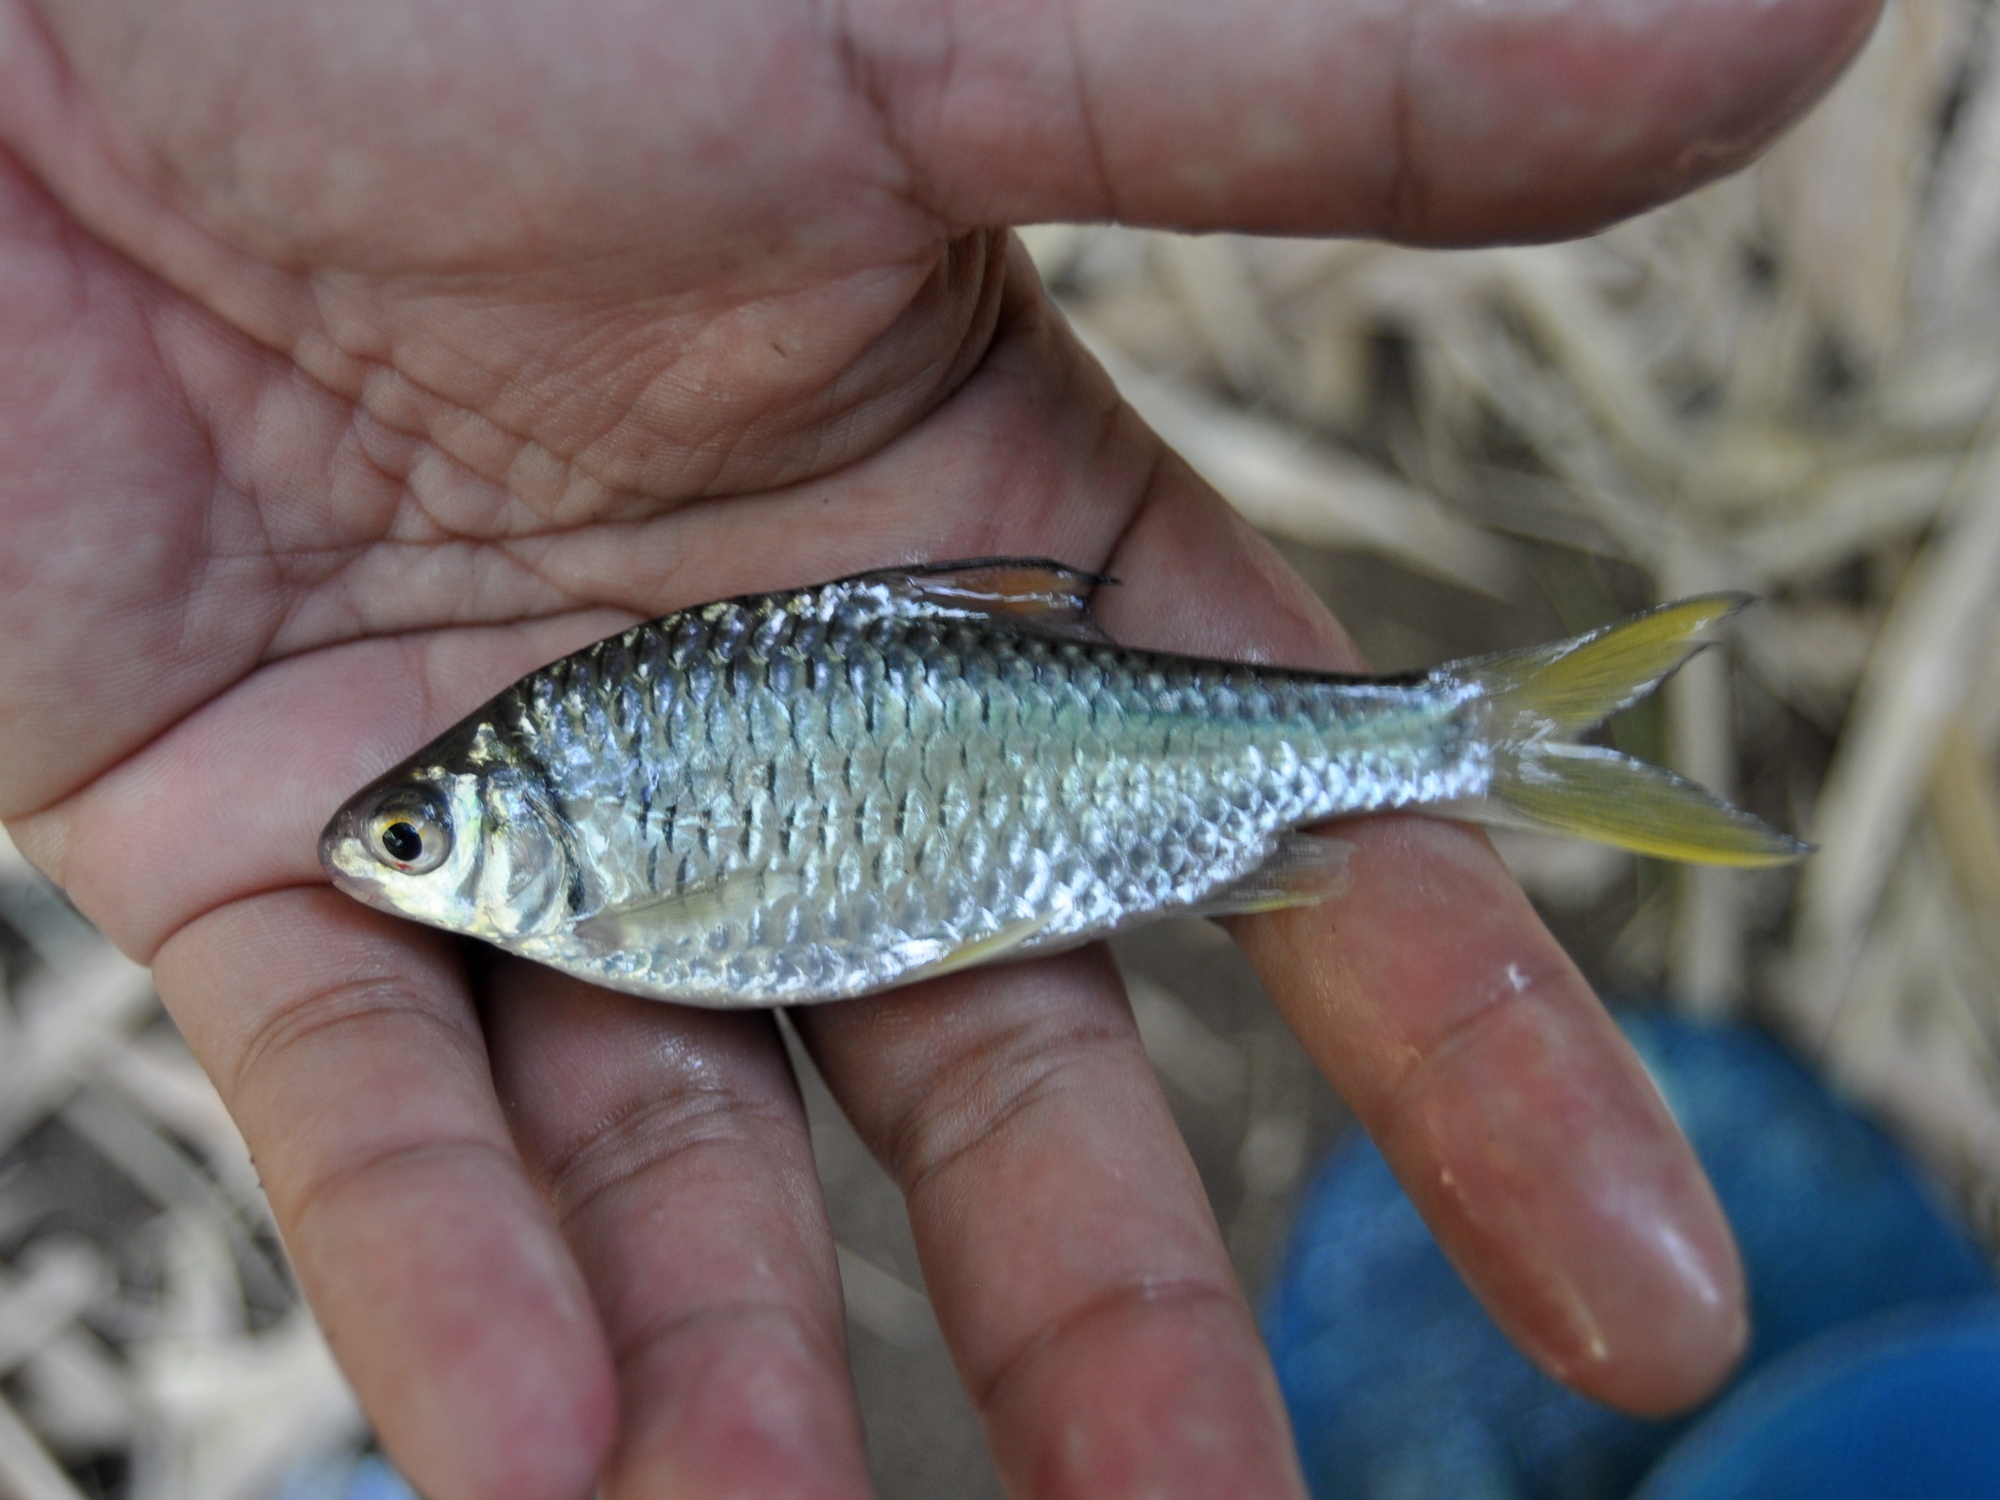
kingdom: Animalia
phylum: Chordata
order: Cypriniformes
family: Cyprinidae
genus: Mystacoleucus
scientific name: Mystacoleucus obtusirostris
